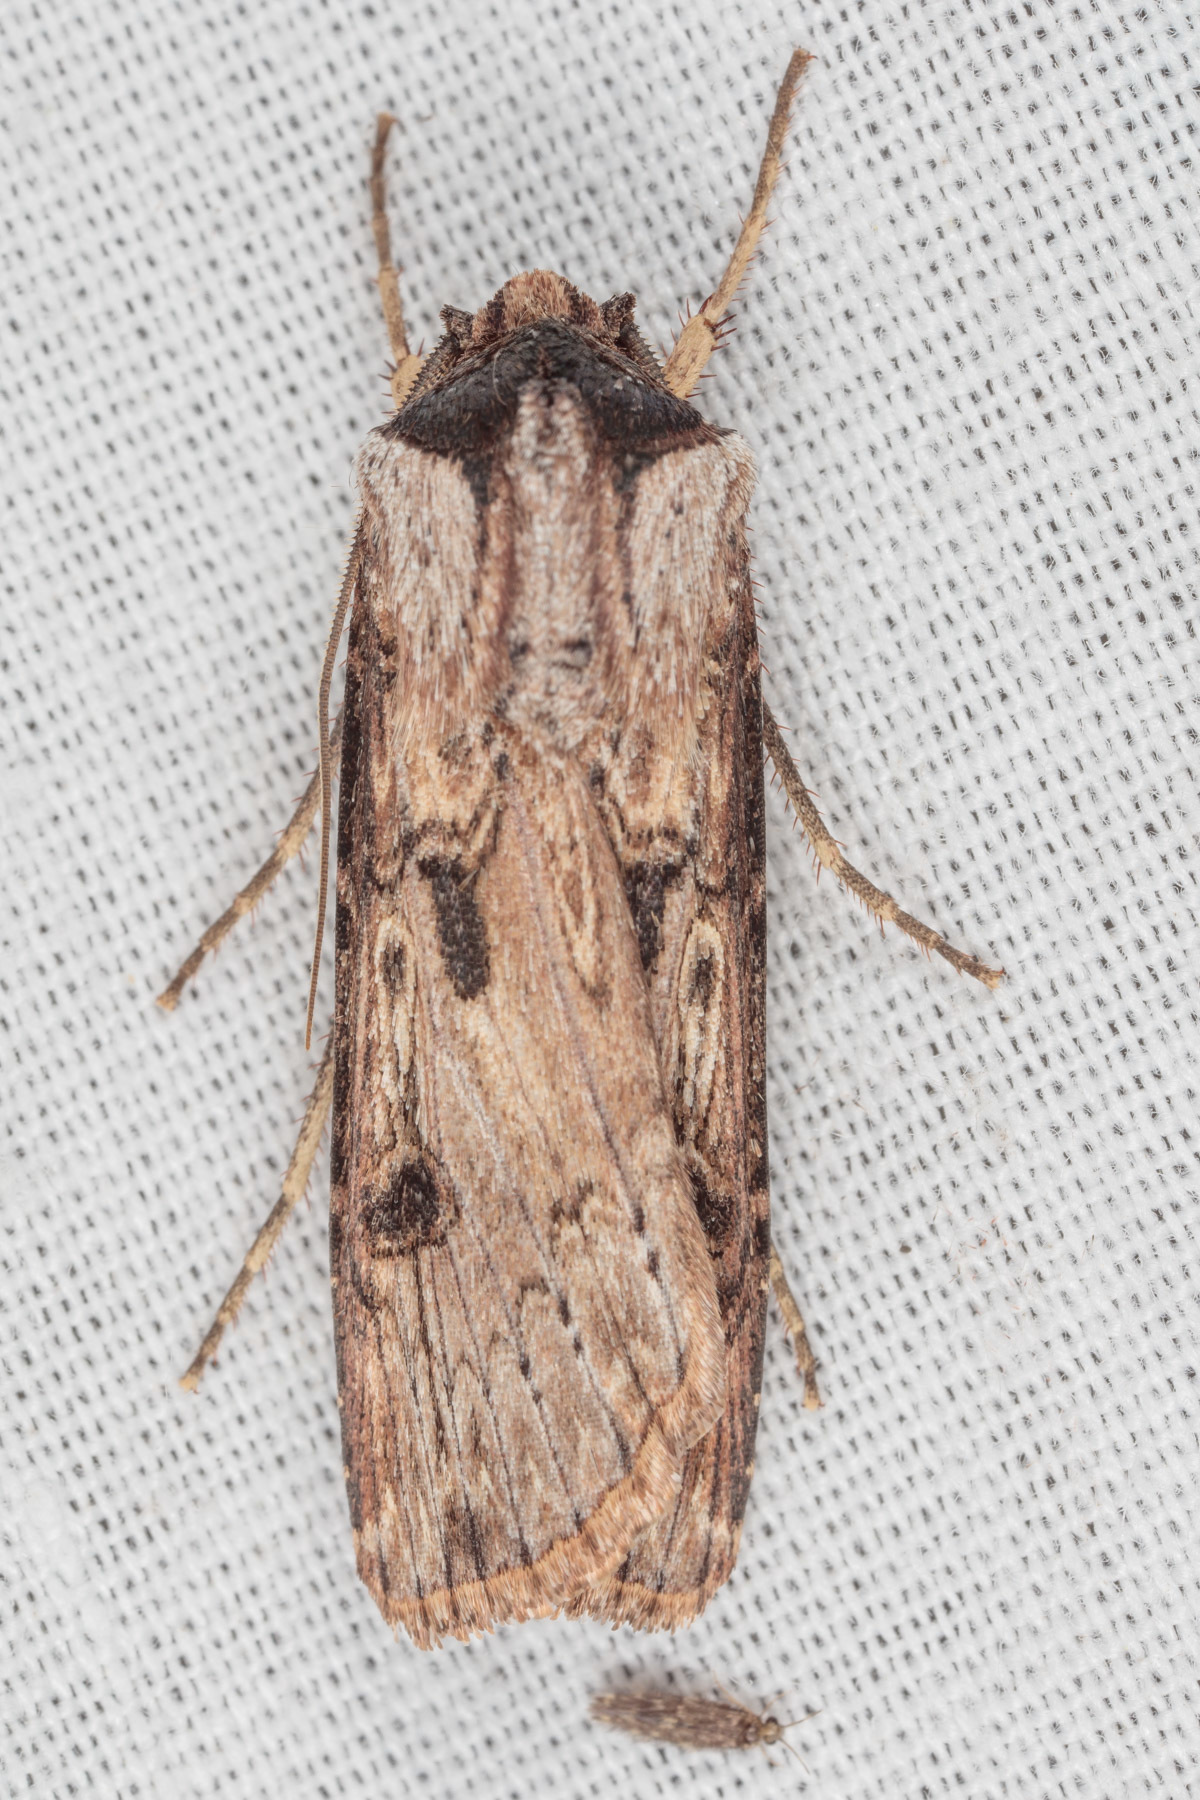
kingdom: Animalia
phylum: Arthropoda
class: Insecta
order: Lepidoptera
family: Noctuidae
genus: Agrotis
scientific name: Agrotis malefida
